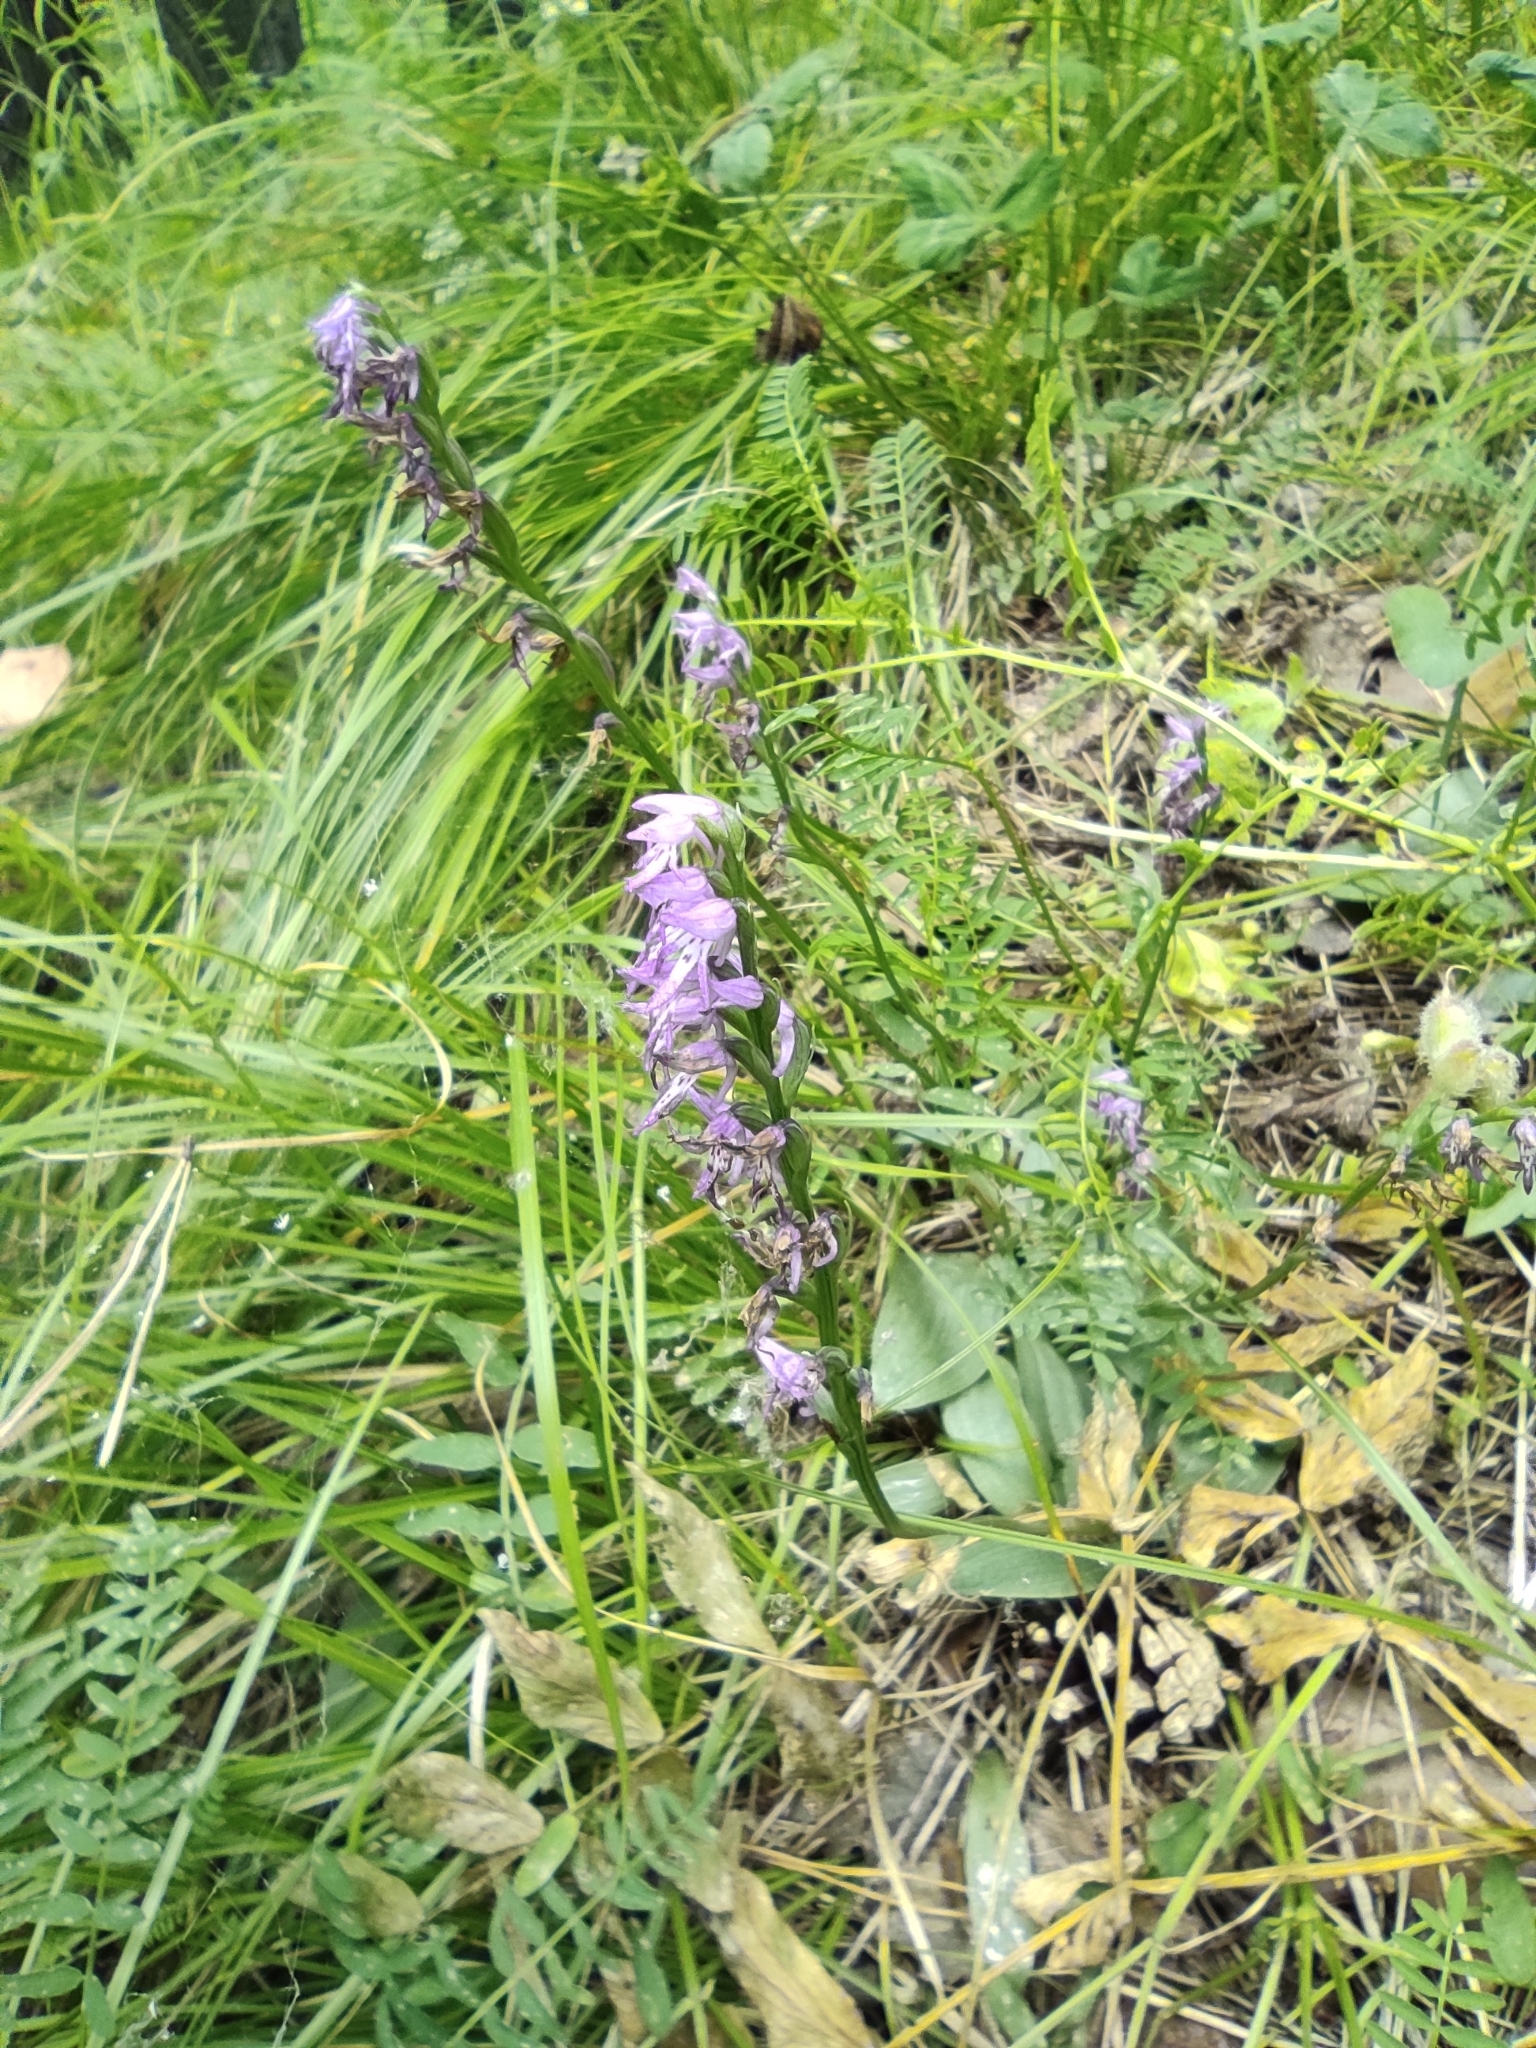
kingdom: Plantae
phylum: Tracheophyta
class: Liliopsida
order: Asparagales
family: Orchidaceae
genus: Hemipilia
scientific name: Hemipilia cucullata
